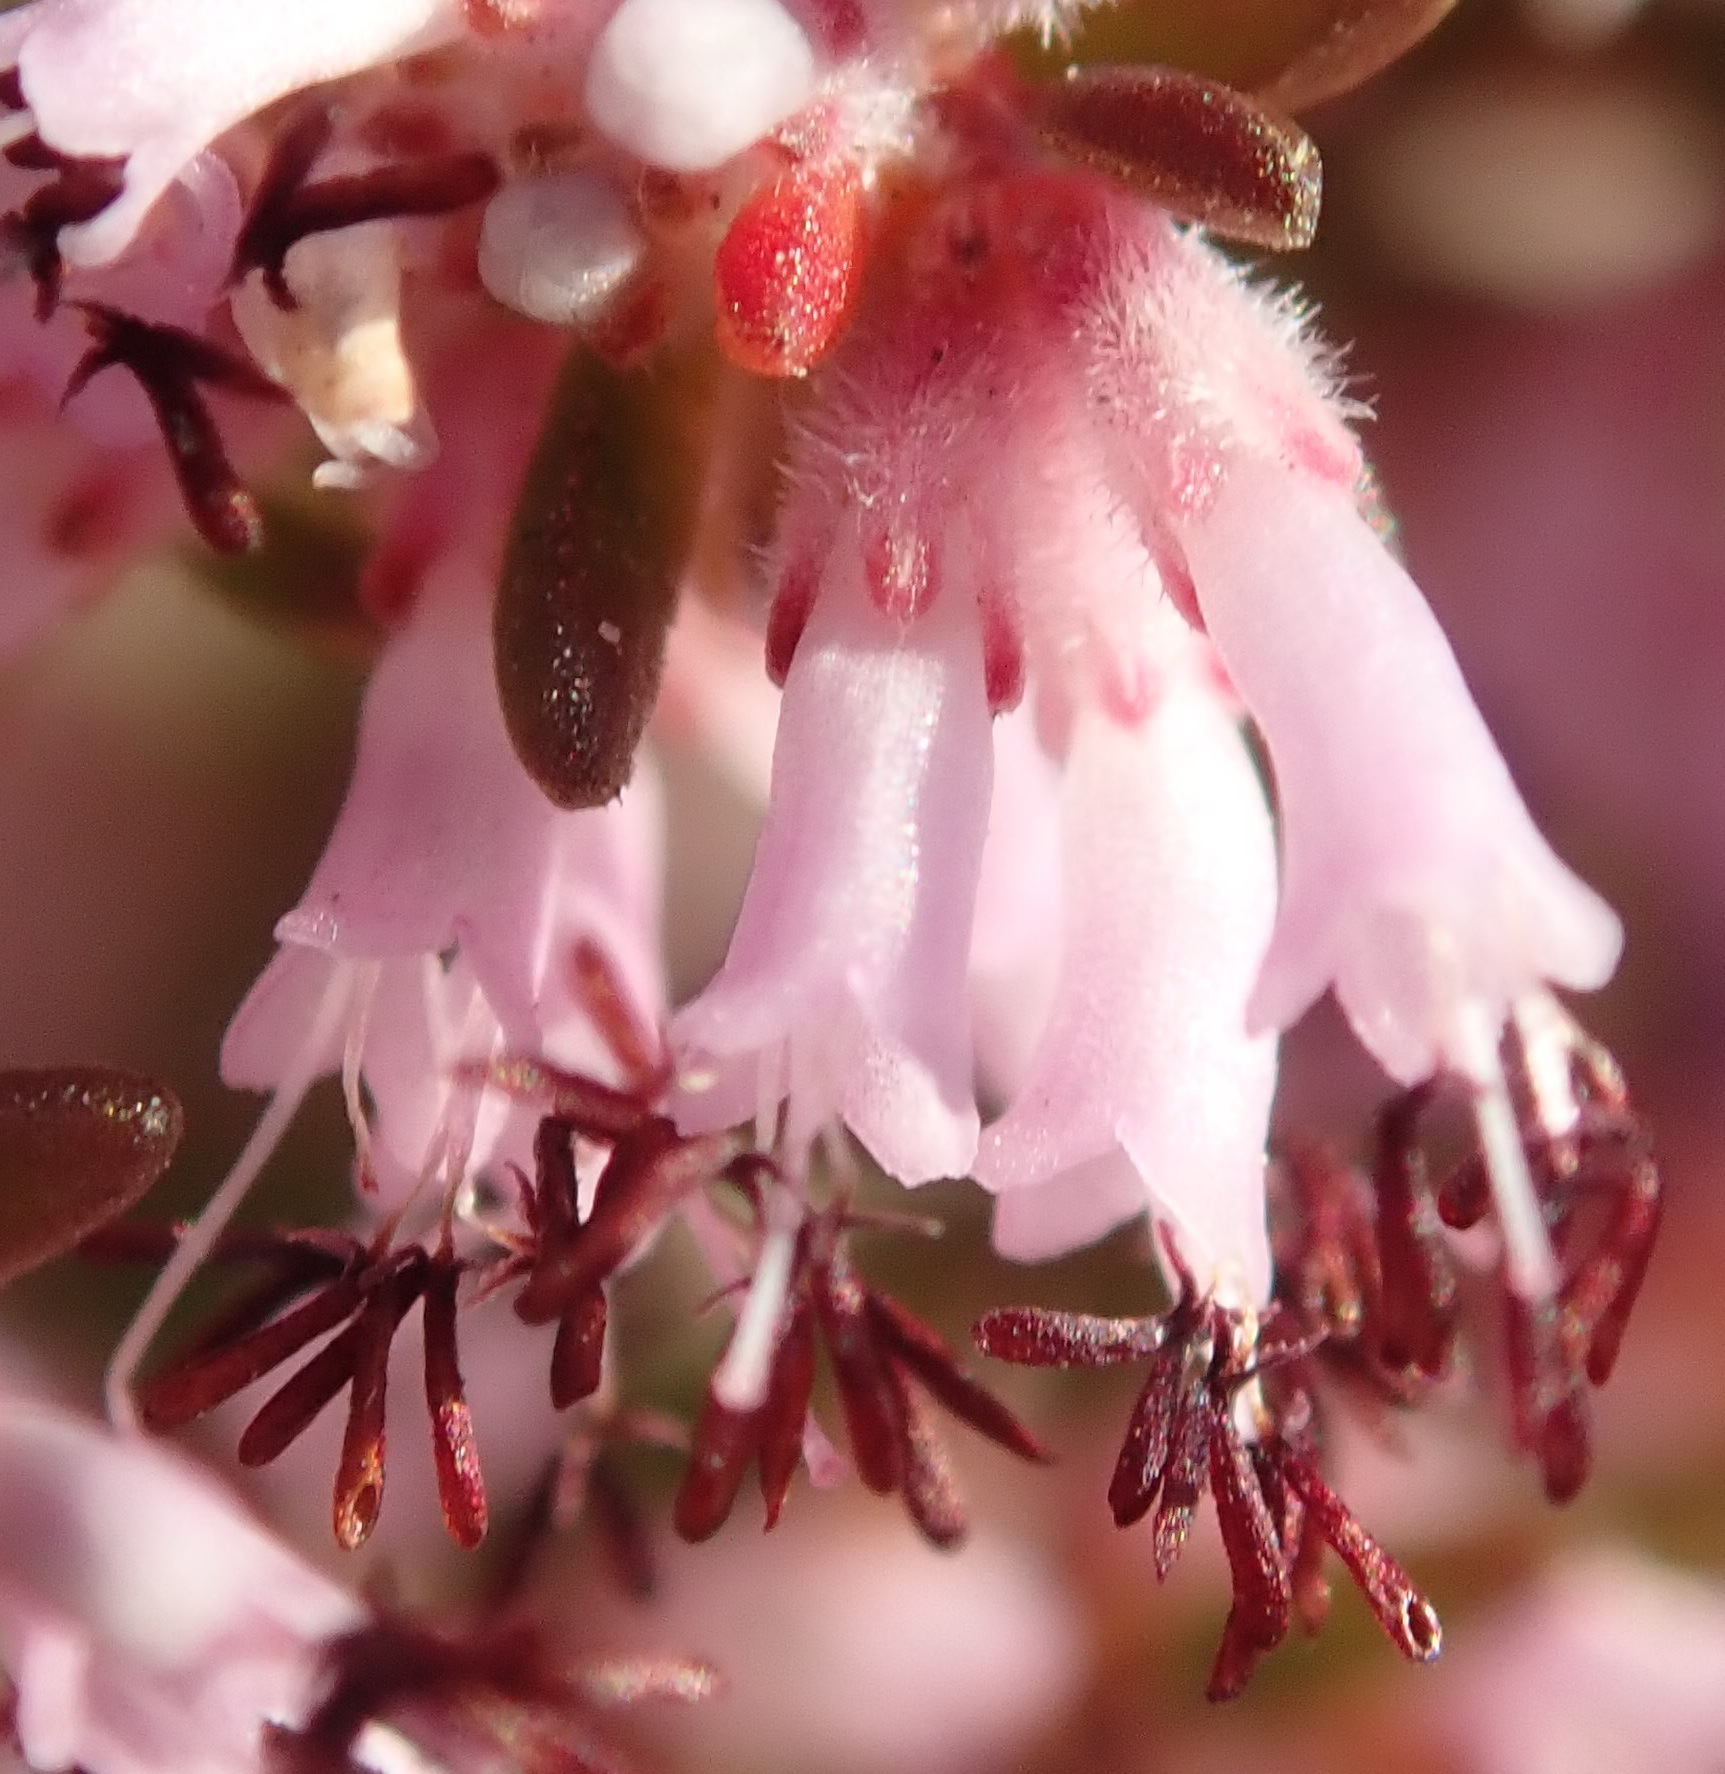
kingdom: Plantae
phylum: Tracheophyta
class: Magnoliopsida
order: Ericales
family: Ericaceae
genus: Erica
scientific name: Erica uberiflora
